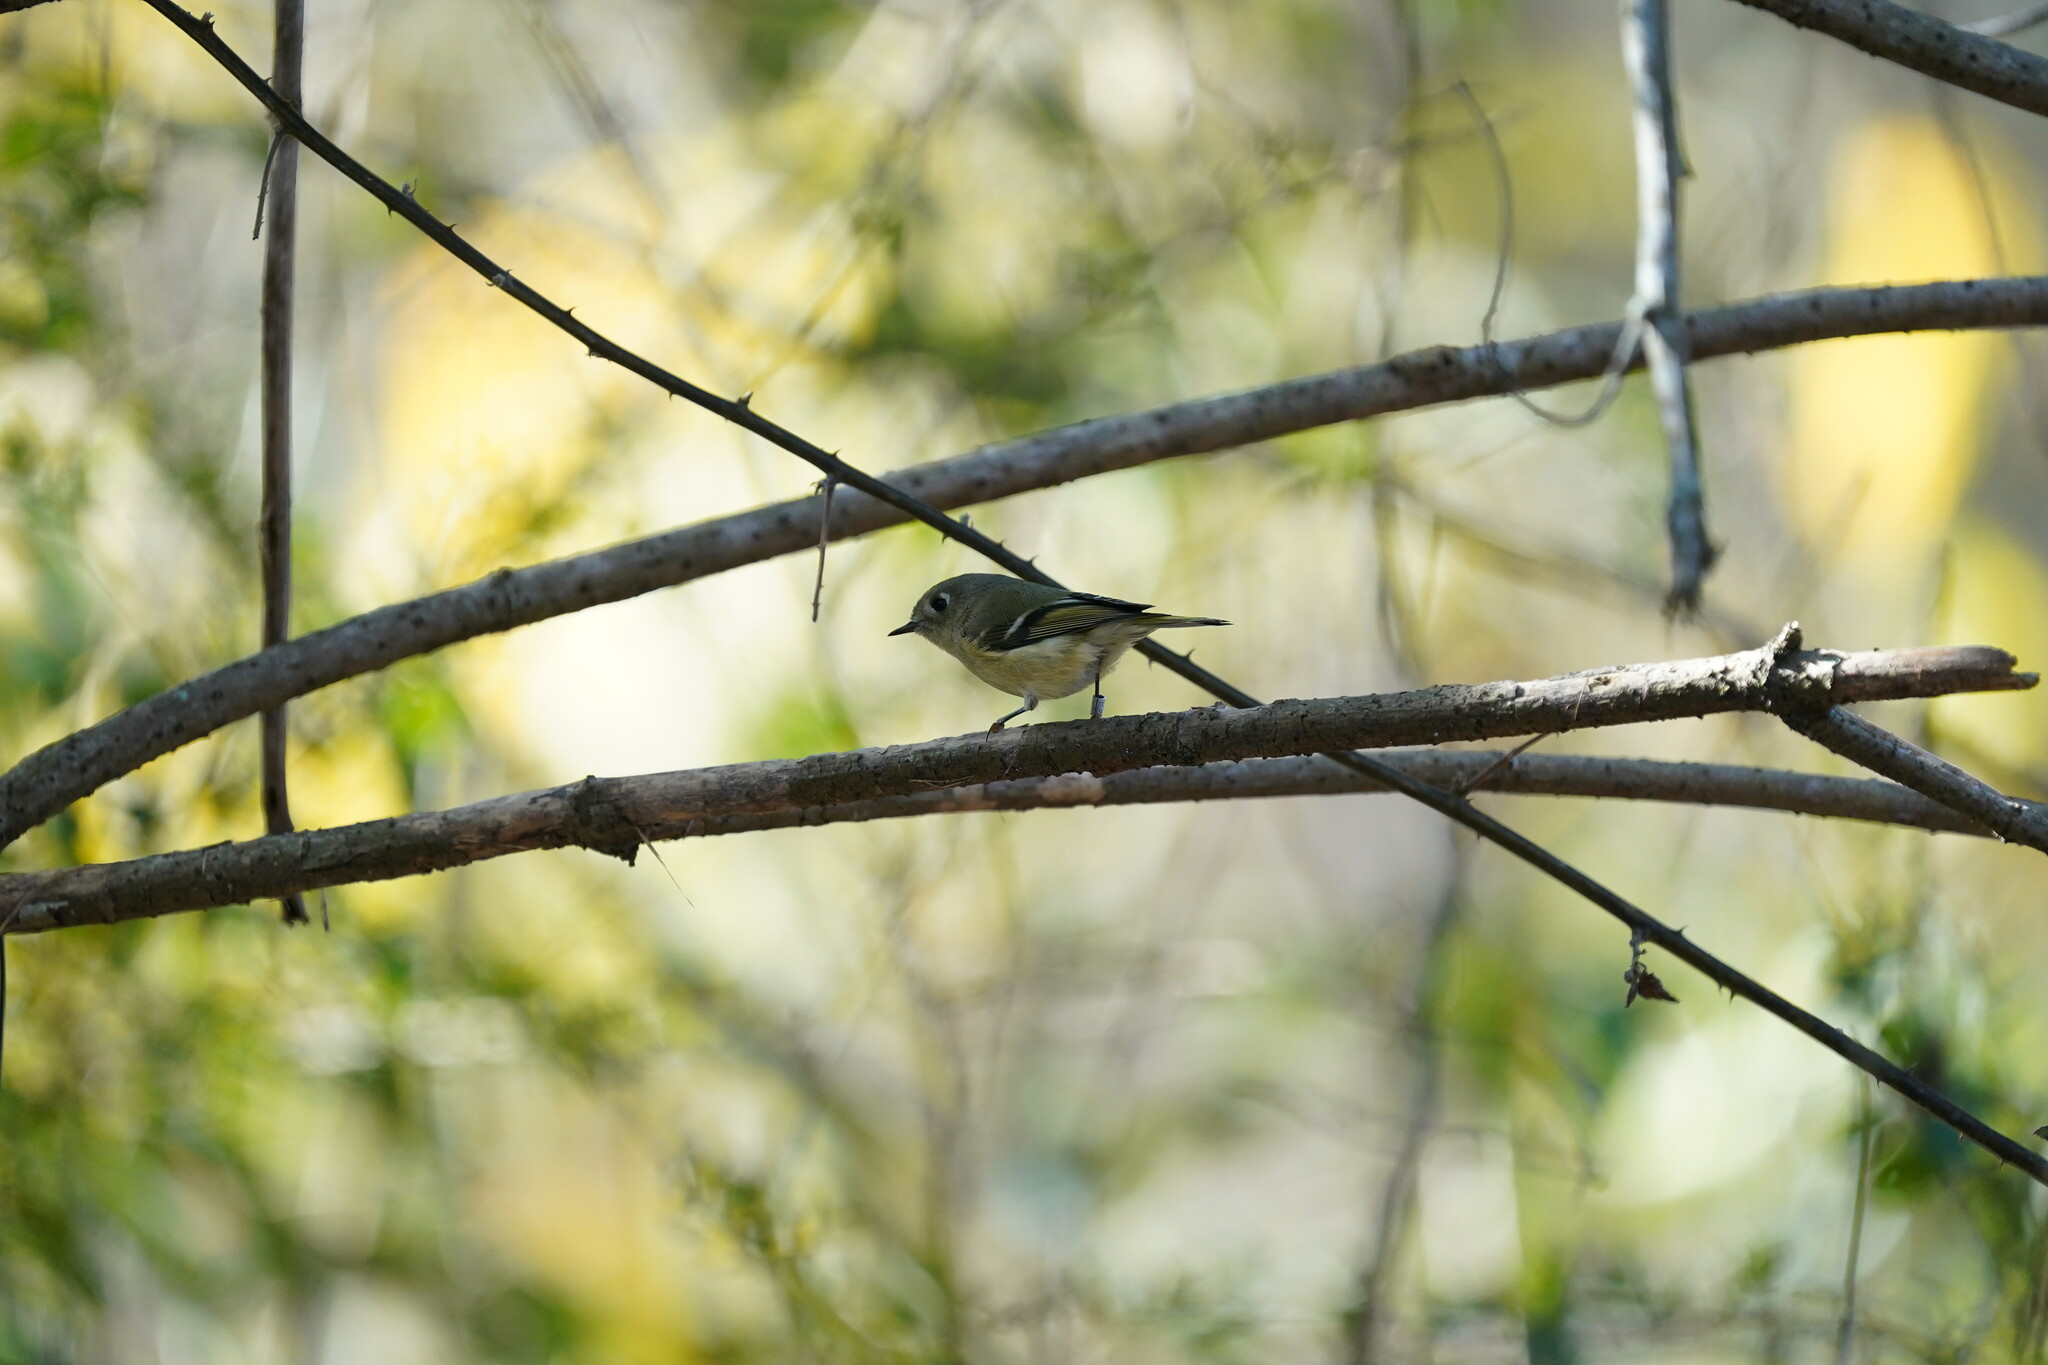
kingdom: Animalia
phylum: Chordata
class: Aves
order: Passeriformes
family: Regulidae
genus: Regulus
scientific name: Regulus calendula
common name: Ruby-crowned kinglet
